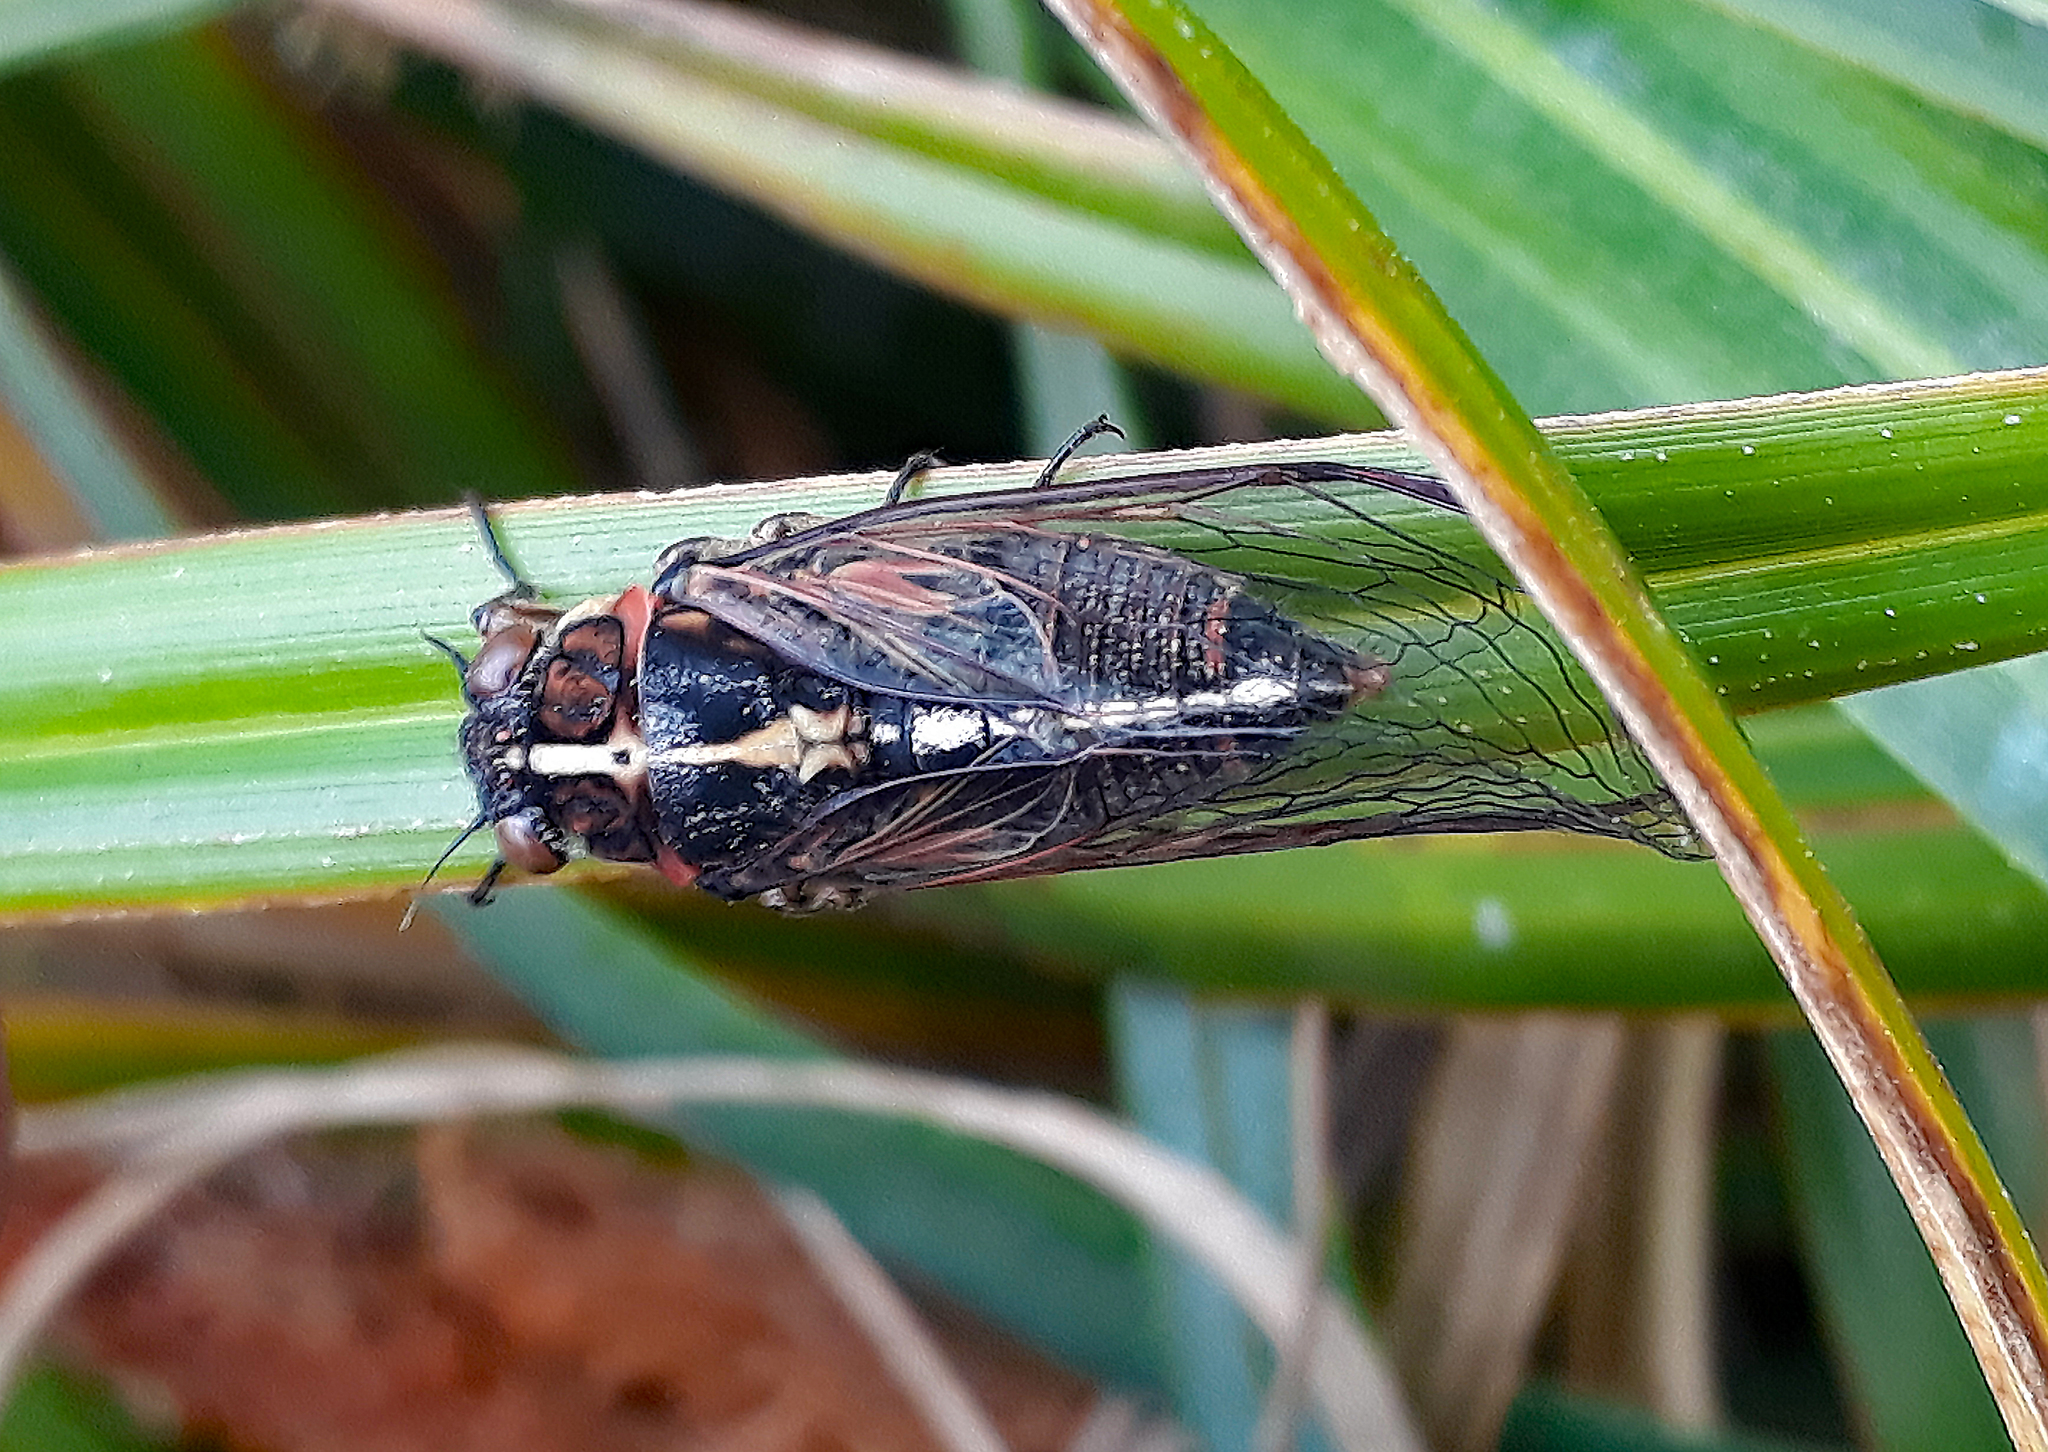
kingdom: Animalia
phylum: Arthropoda
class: Insecta
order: Hemiptera
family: Cicadidae
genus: Kikihia
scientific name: Kikihia longula
